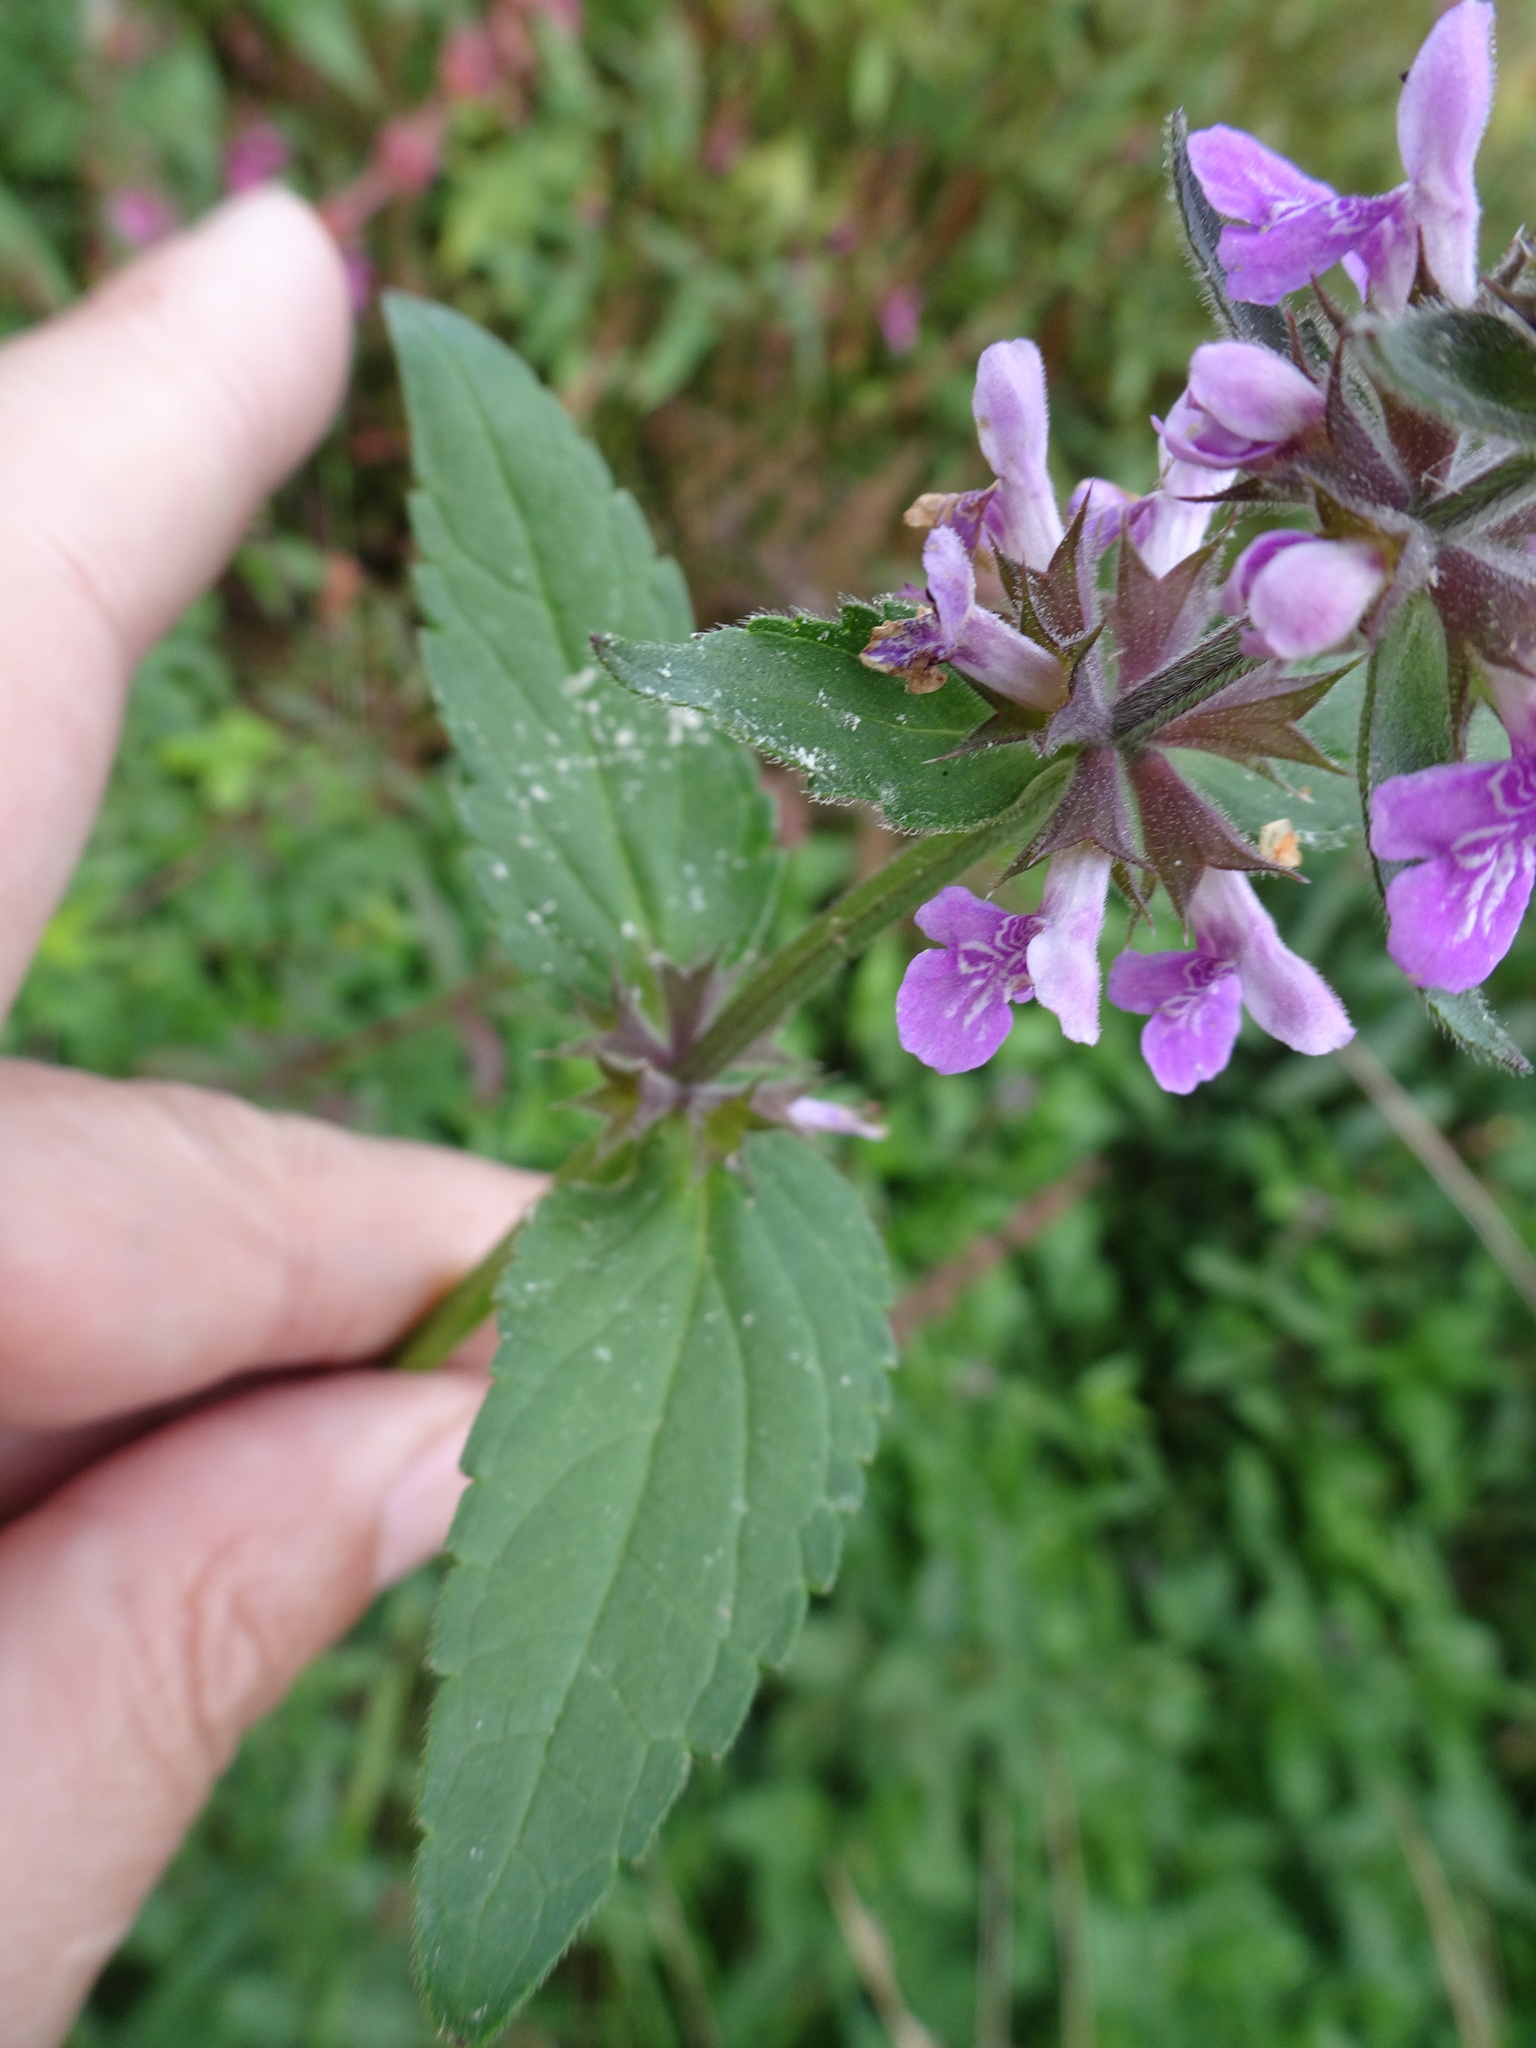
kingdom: Plantae
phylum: Tracheophyta
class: Magnoliopsida
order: Lamiales
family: Lamiaceae
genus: Stachys
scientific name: Stachys palustris
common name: Marsh woundwort
